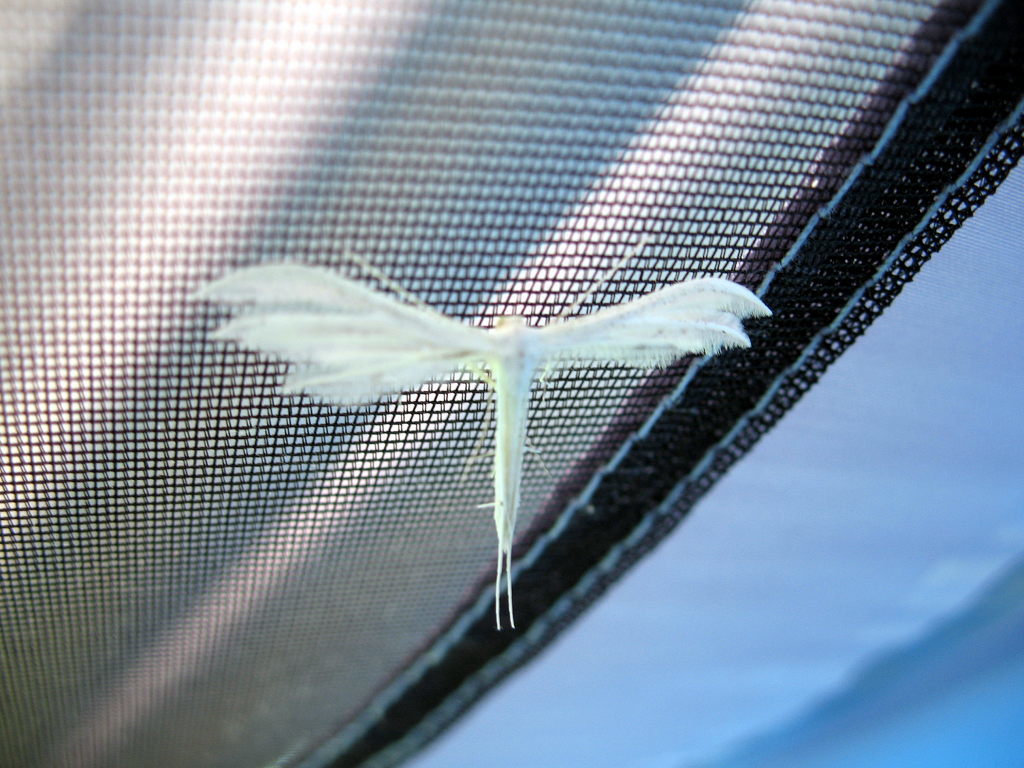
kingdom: Animalia
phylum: Arthropoda
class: Insecta
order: Lepidoptera
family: Pterophoridae
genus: Pterophorus
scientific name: Pterophorus pentadactyla
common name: White plume moth
